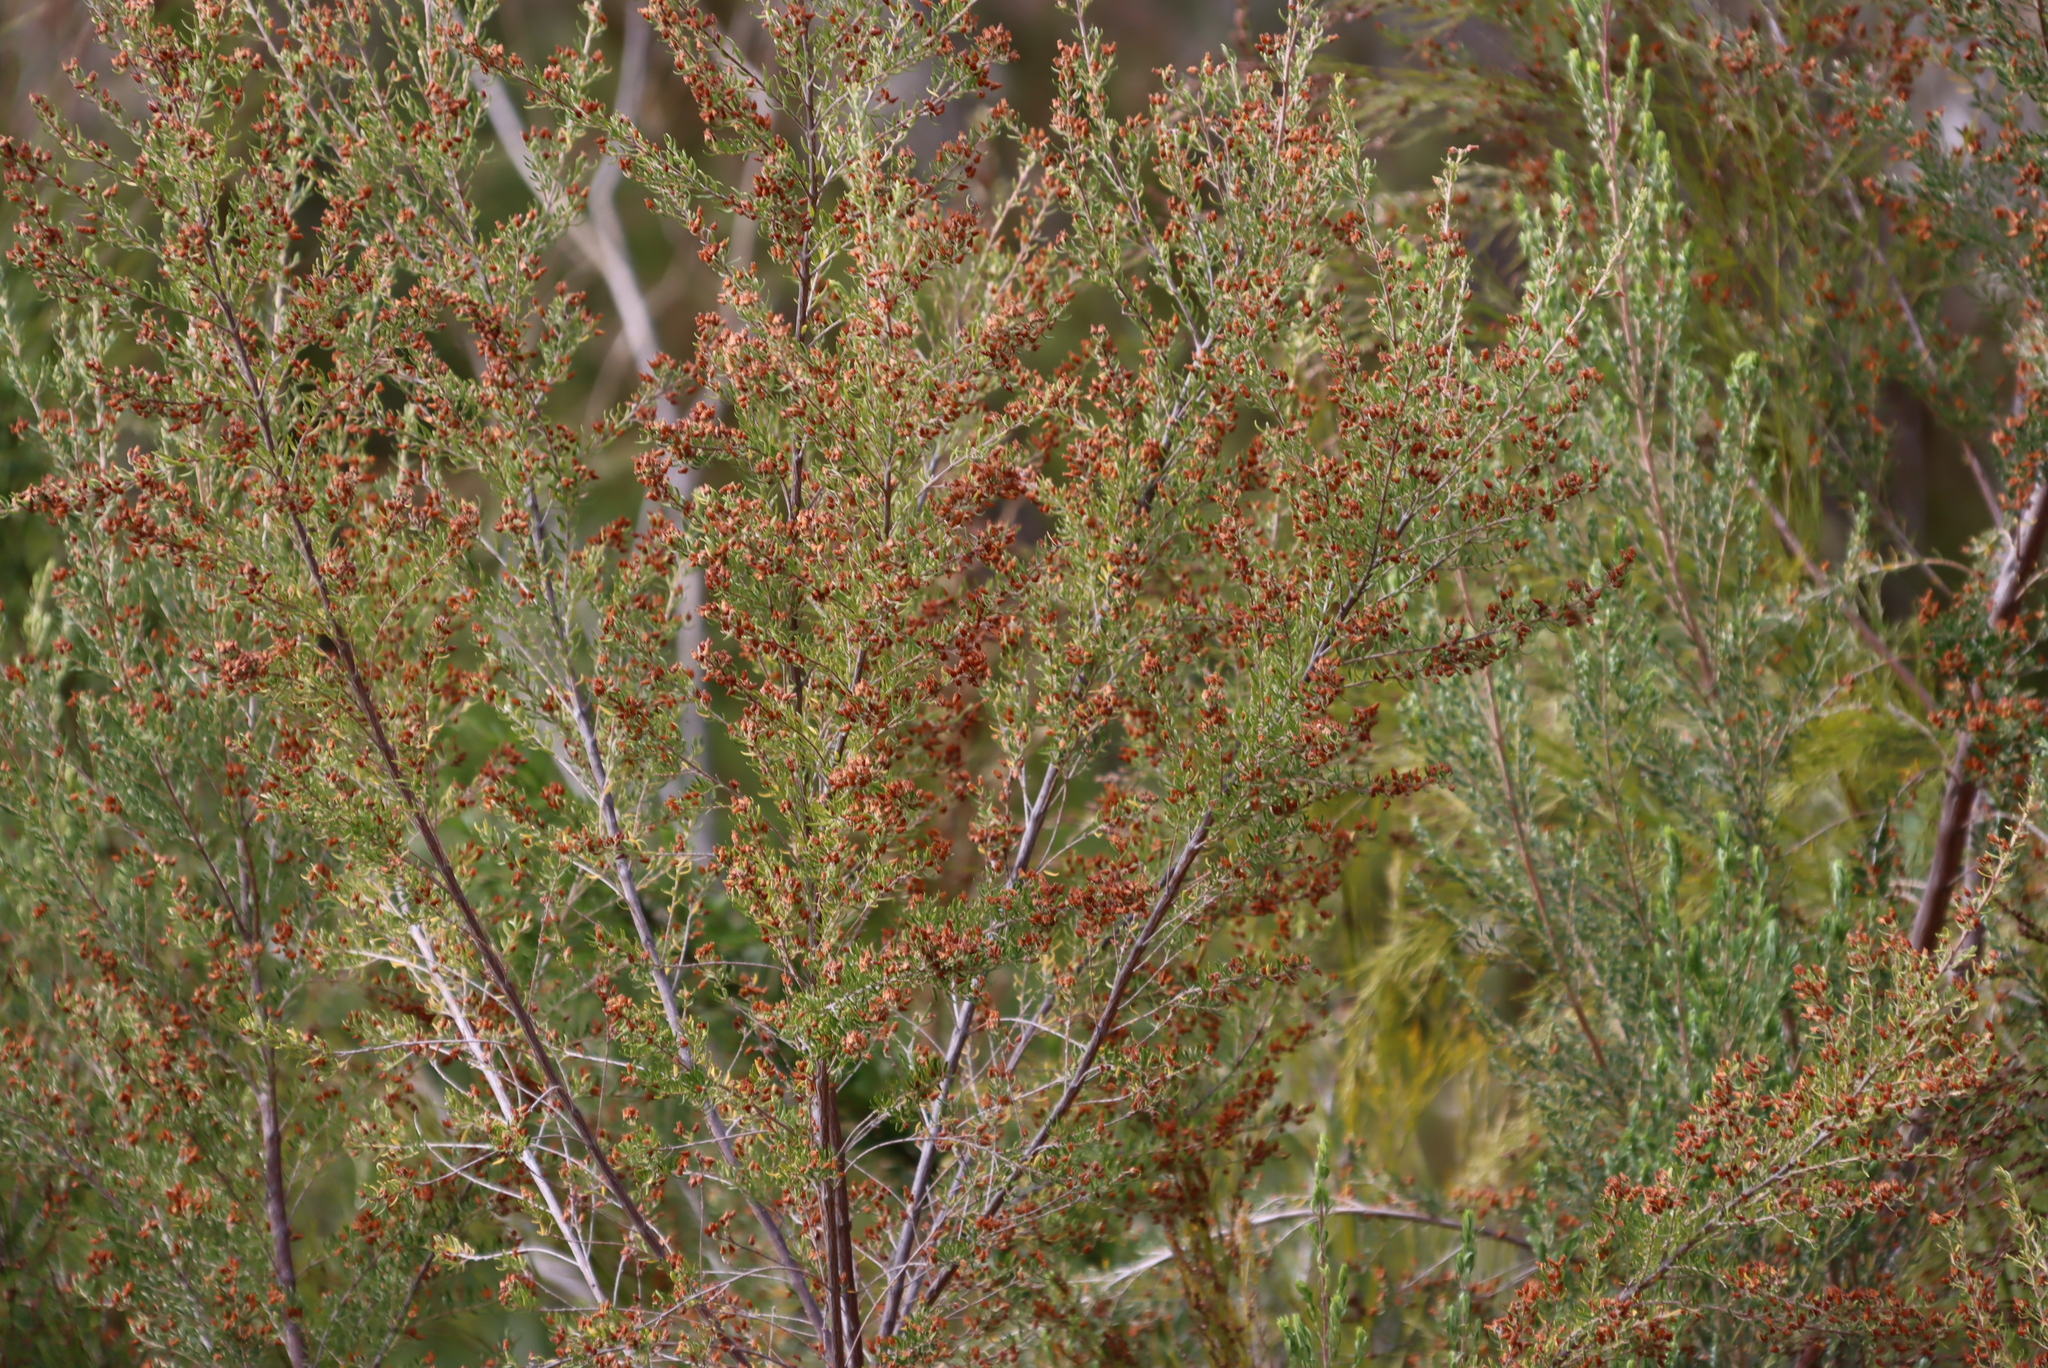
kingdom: Plantae
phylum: Tracheophyta
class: Magnoliopsida
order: Ericales
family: Ericaceae
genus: Erica
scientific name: Erica caffra
